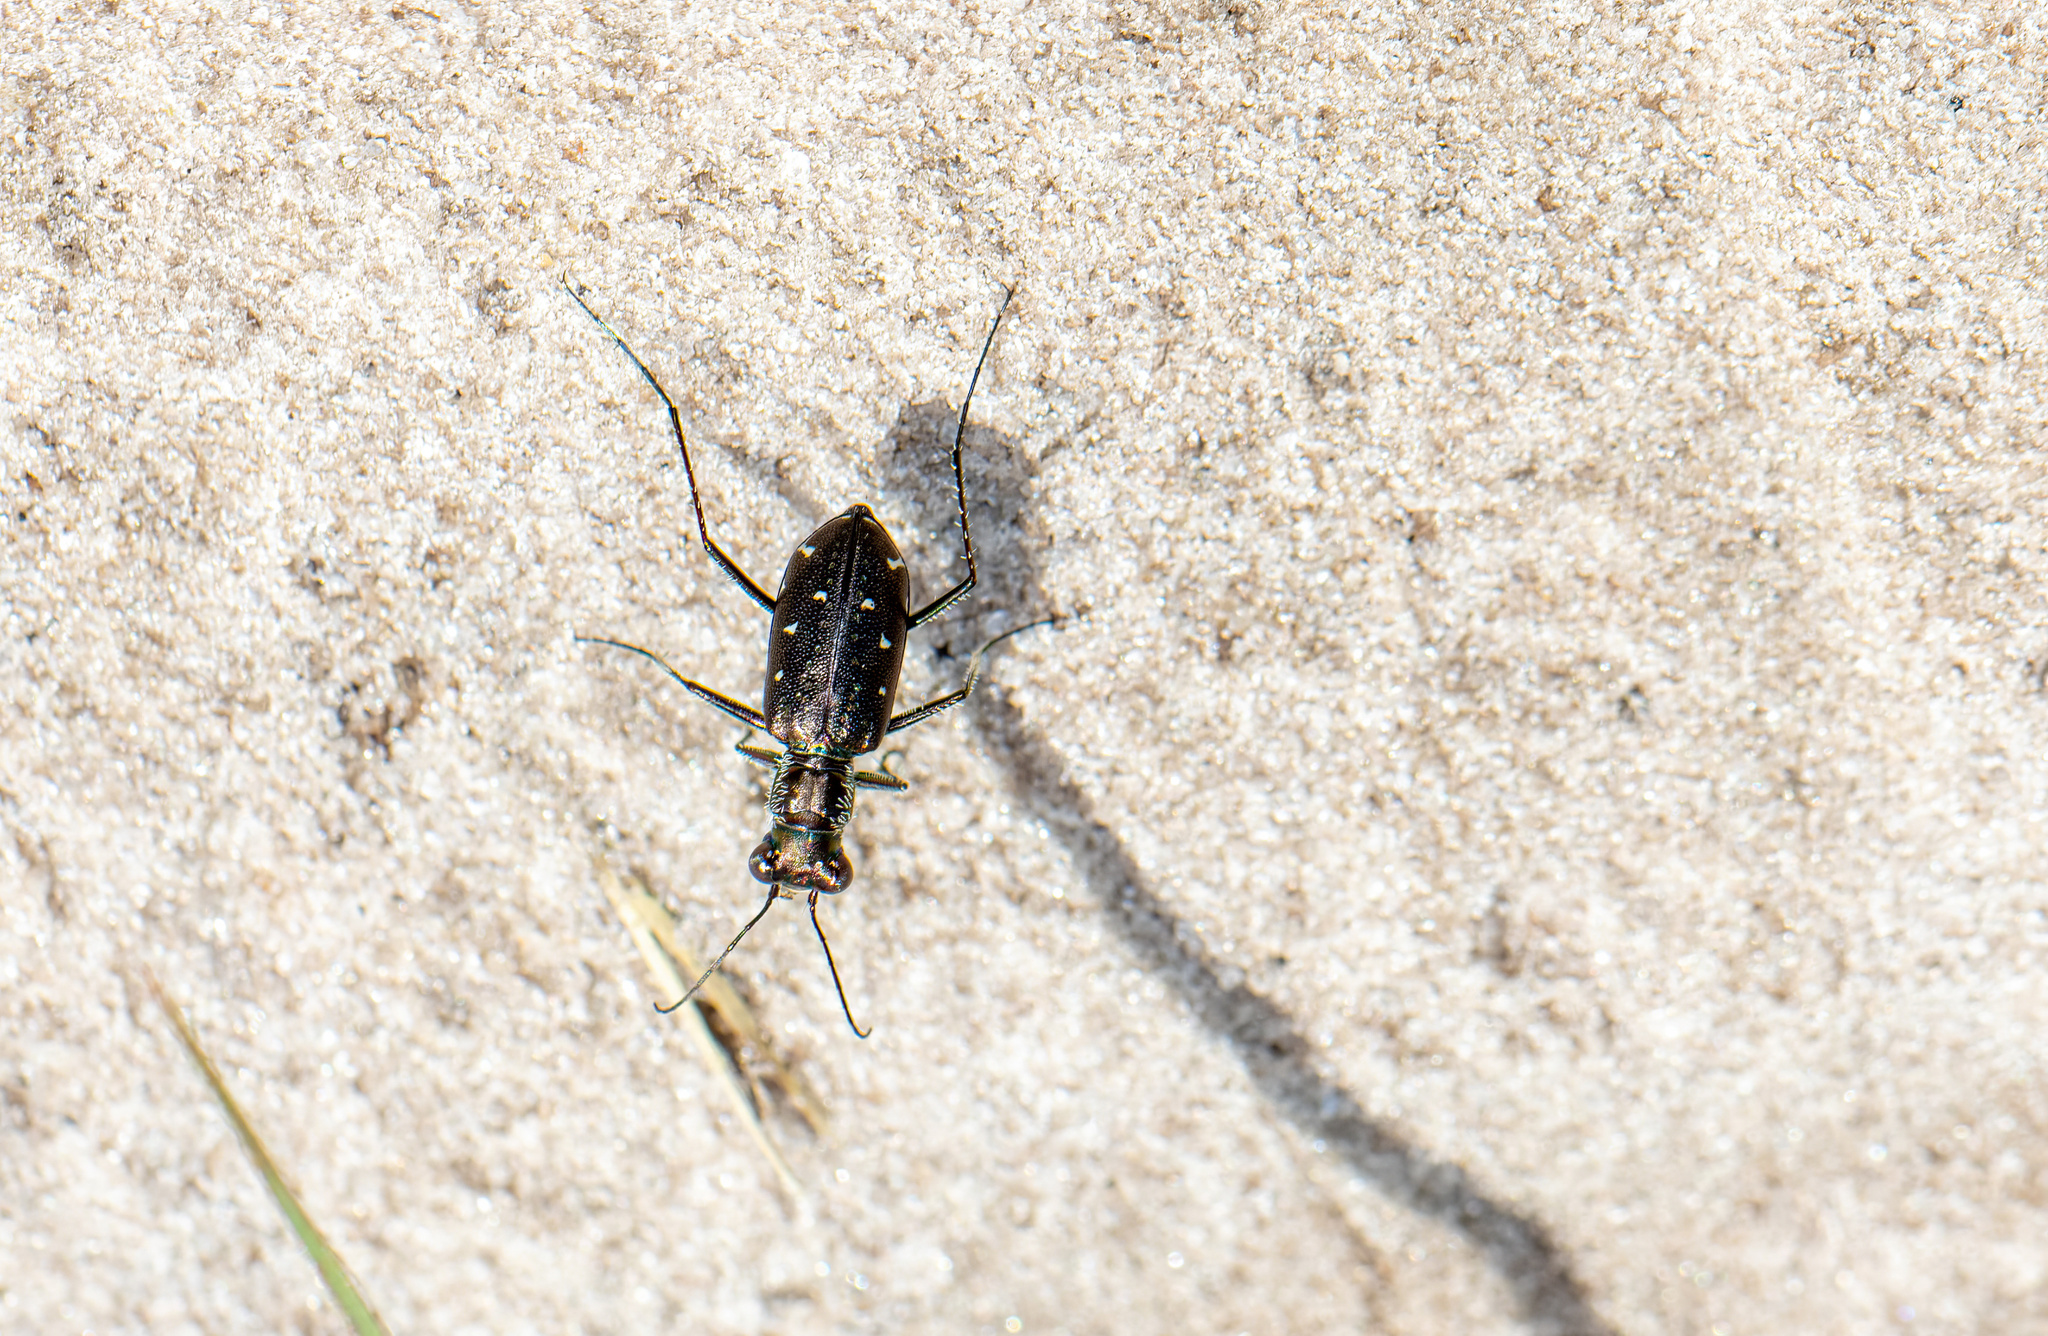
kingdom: Animalia
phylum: Arthropoda
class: Insecta
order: Coleoptera
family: Carabidae
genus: Cicindela
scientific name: Cicindela punctulata
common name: Punctured tiger beetle
